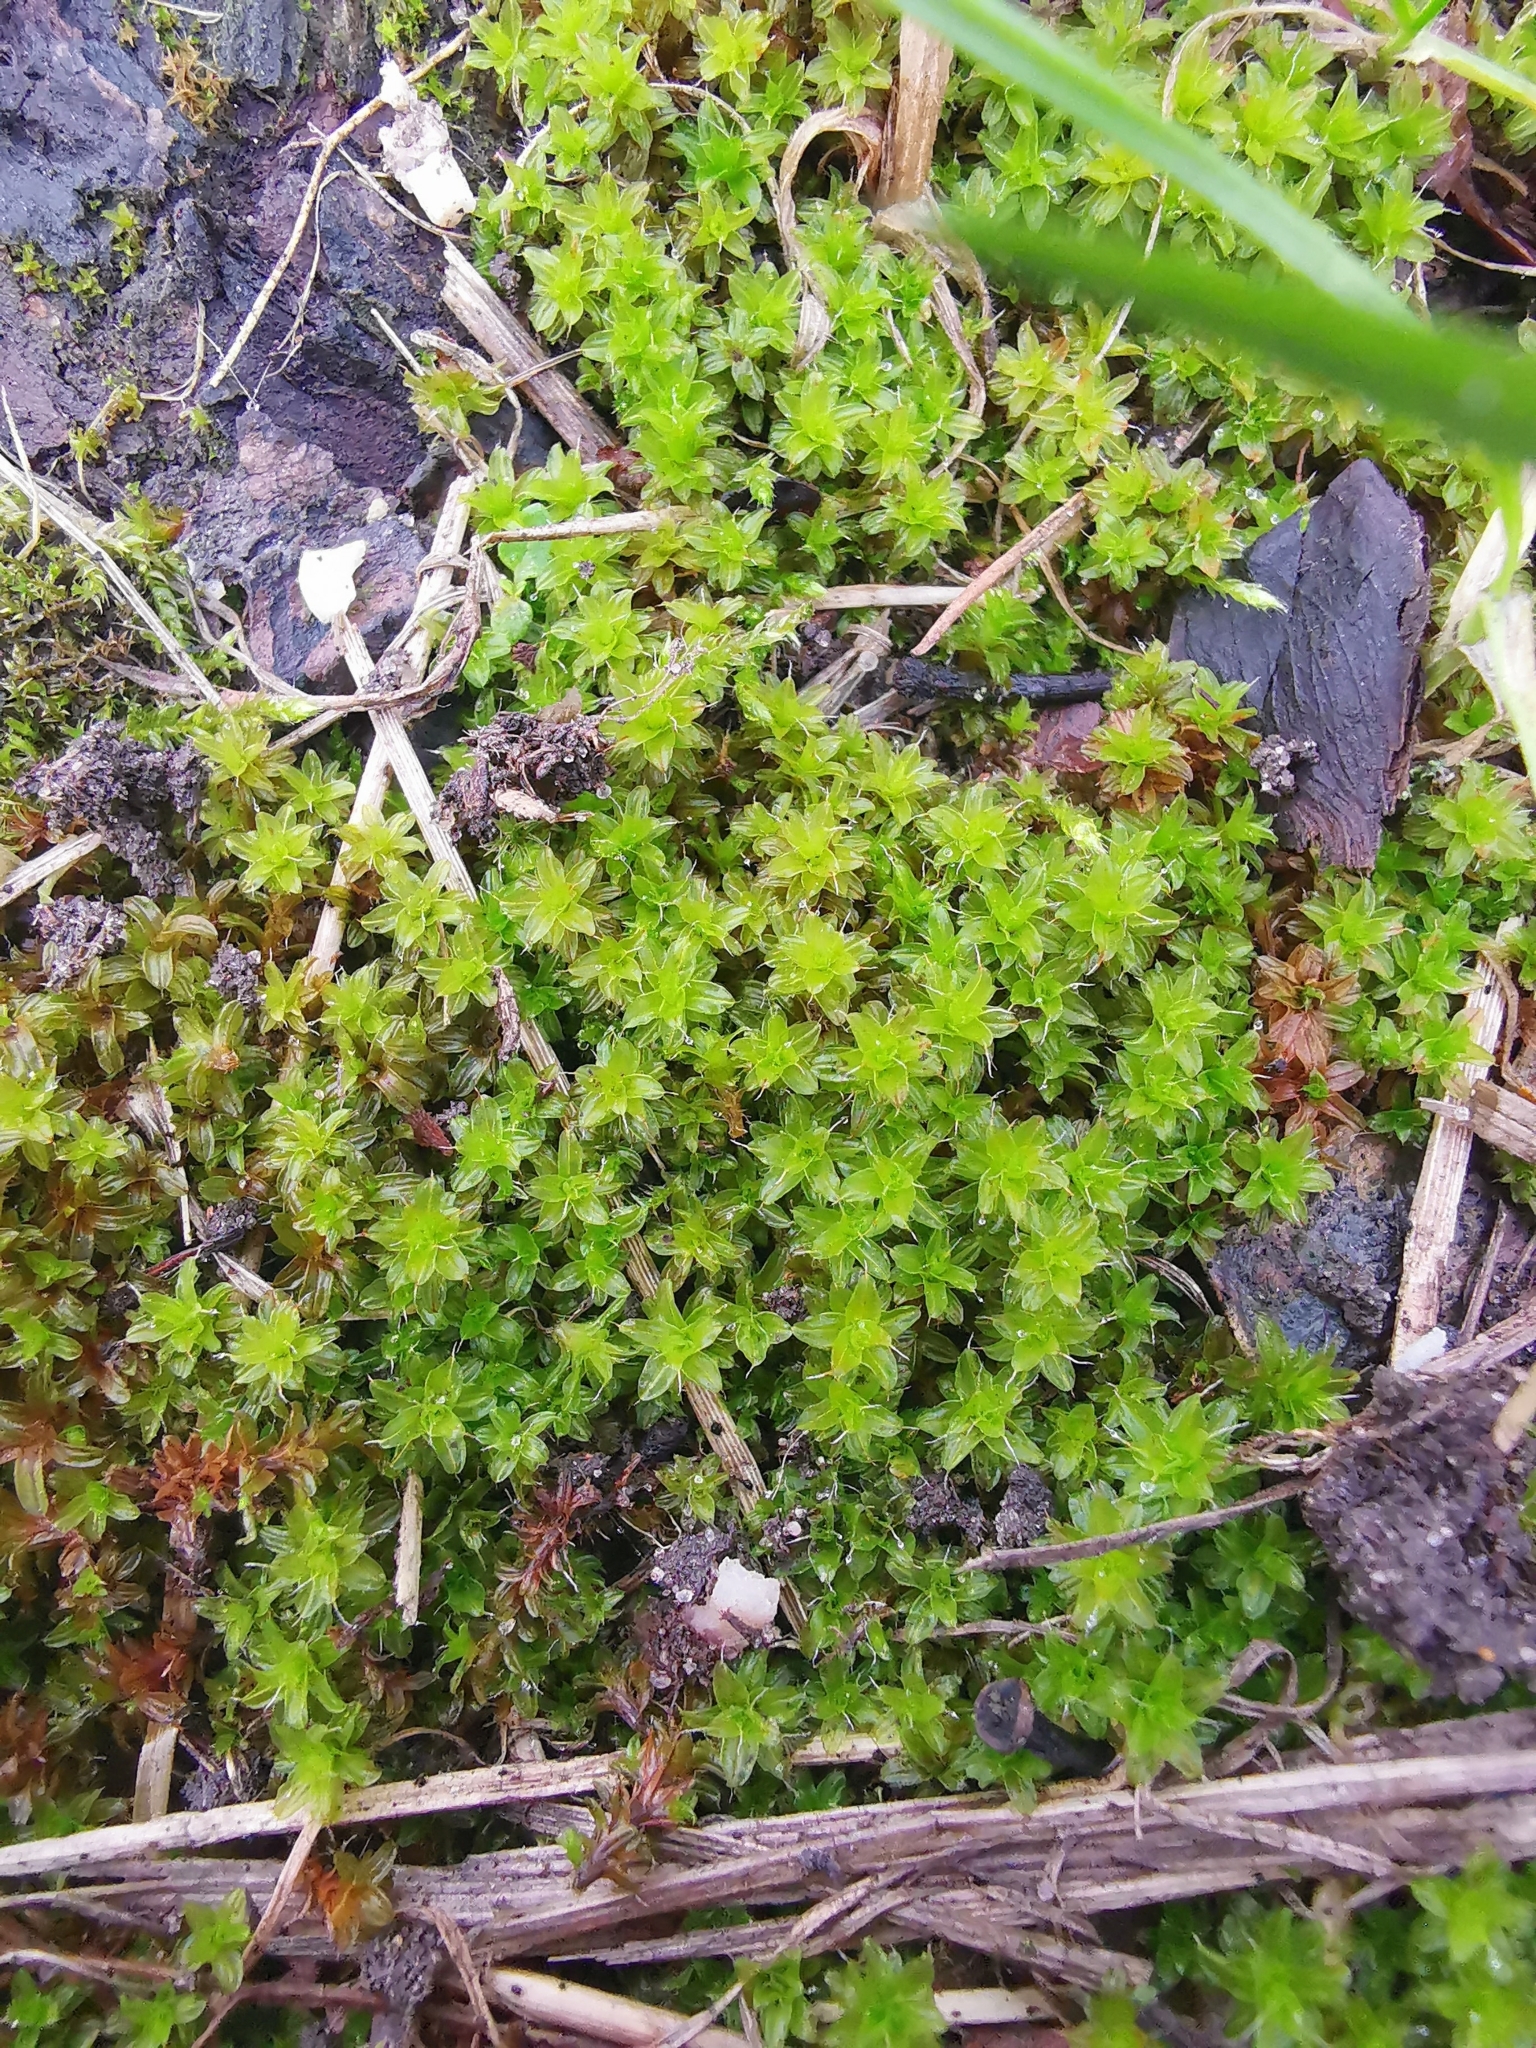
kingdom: Plantae
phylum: Bryophyta
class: Bryopsida
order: Pottiales
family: Pottiaceae
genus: Syntrichia
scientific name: Syntrichia ruralis
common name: Sidewalk screw moss
